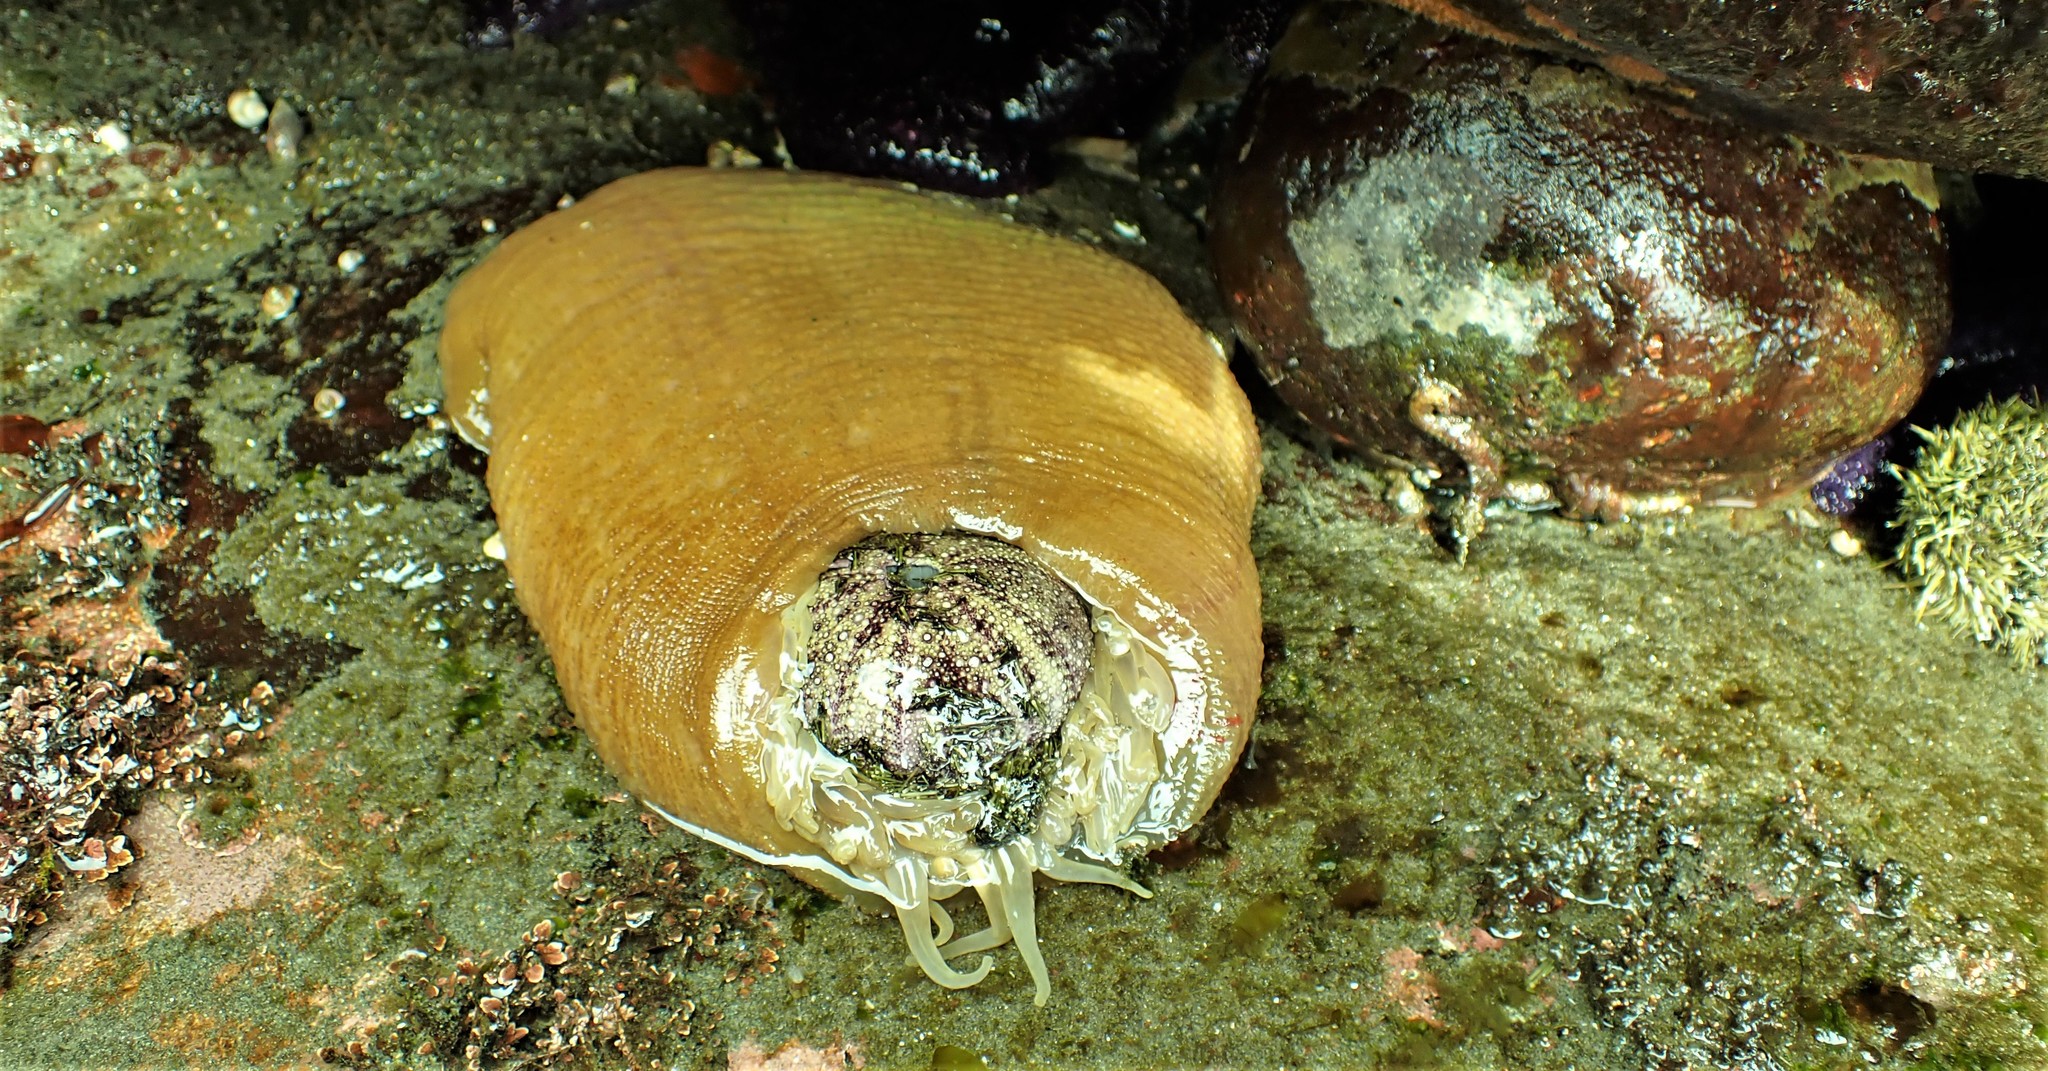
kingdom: Animalia
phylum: Cnidaria
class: Anthozoa
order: Actiniaria
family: Actiniidae
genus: Urticina
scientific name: Urticina grebelnyi
